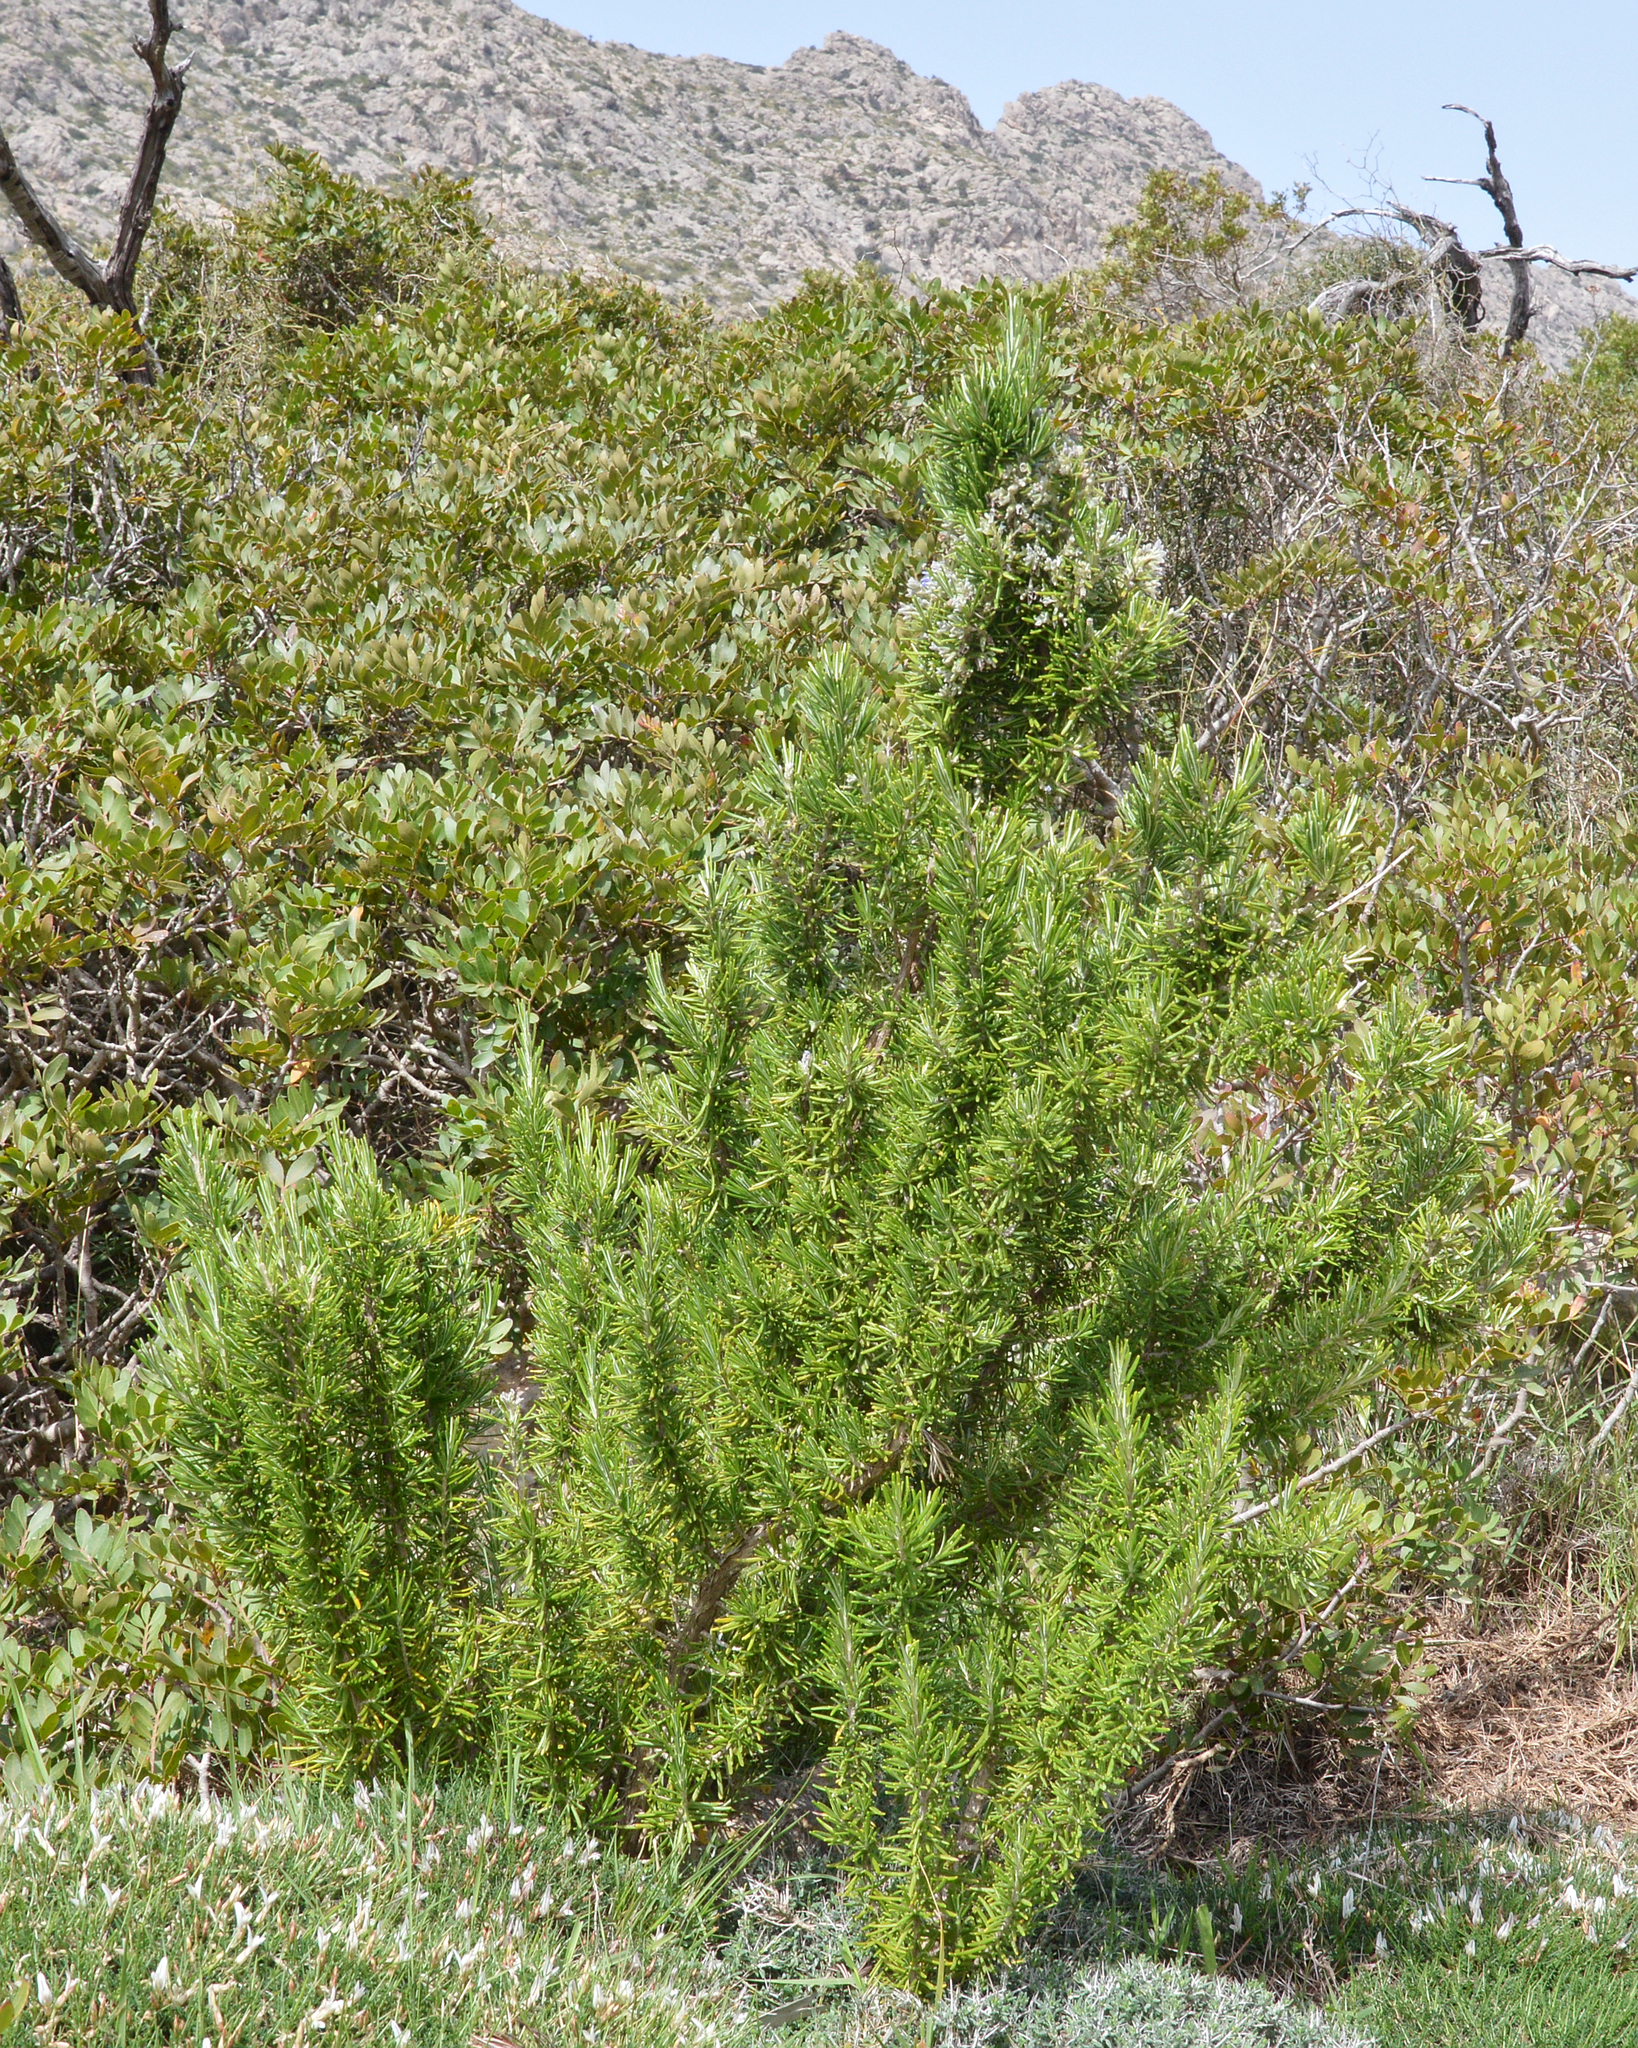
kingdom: Plantae
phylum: Tracheophyta
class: Magnoliopsida
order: Lamiales
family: Lamiaceae
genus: Salvia
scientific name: Salvia rosmarinus
